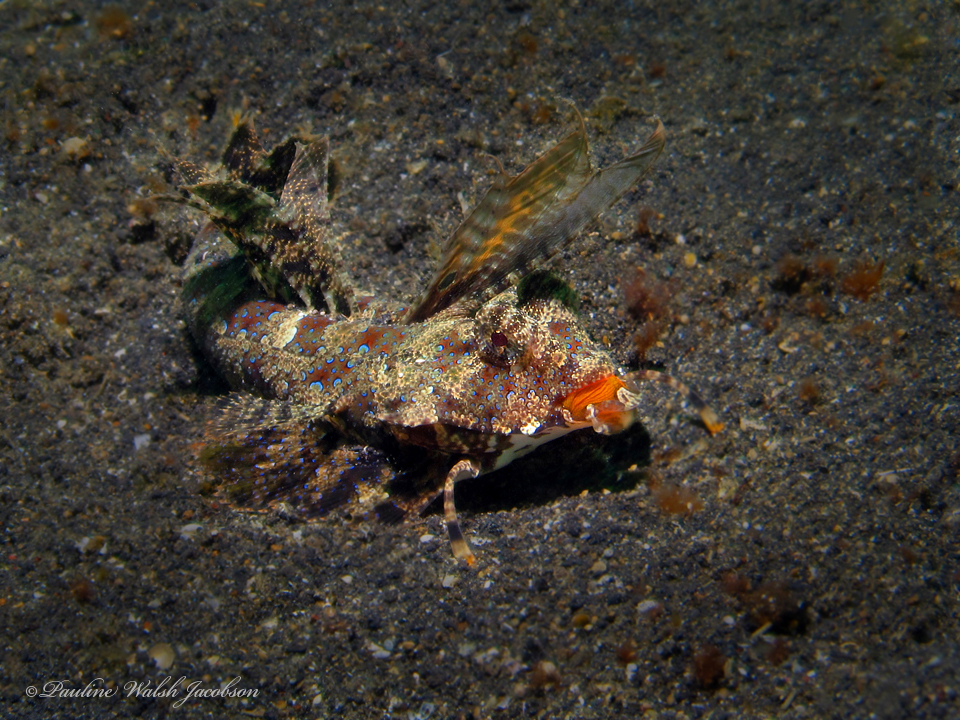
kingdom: Animalia
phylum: Chordata
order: Perciformes
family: Callionymidae
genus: Dactylopus
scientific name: Dactylopus kuiteri
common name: Kuiter's dragonet
